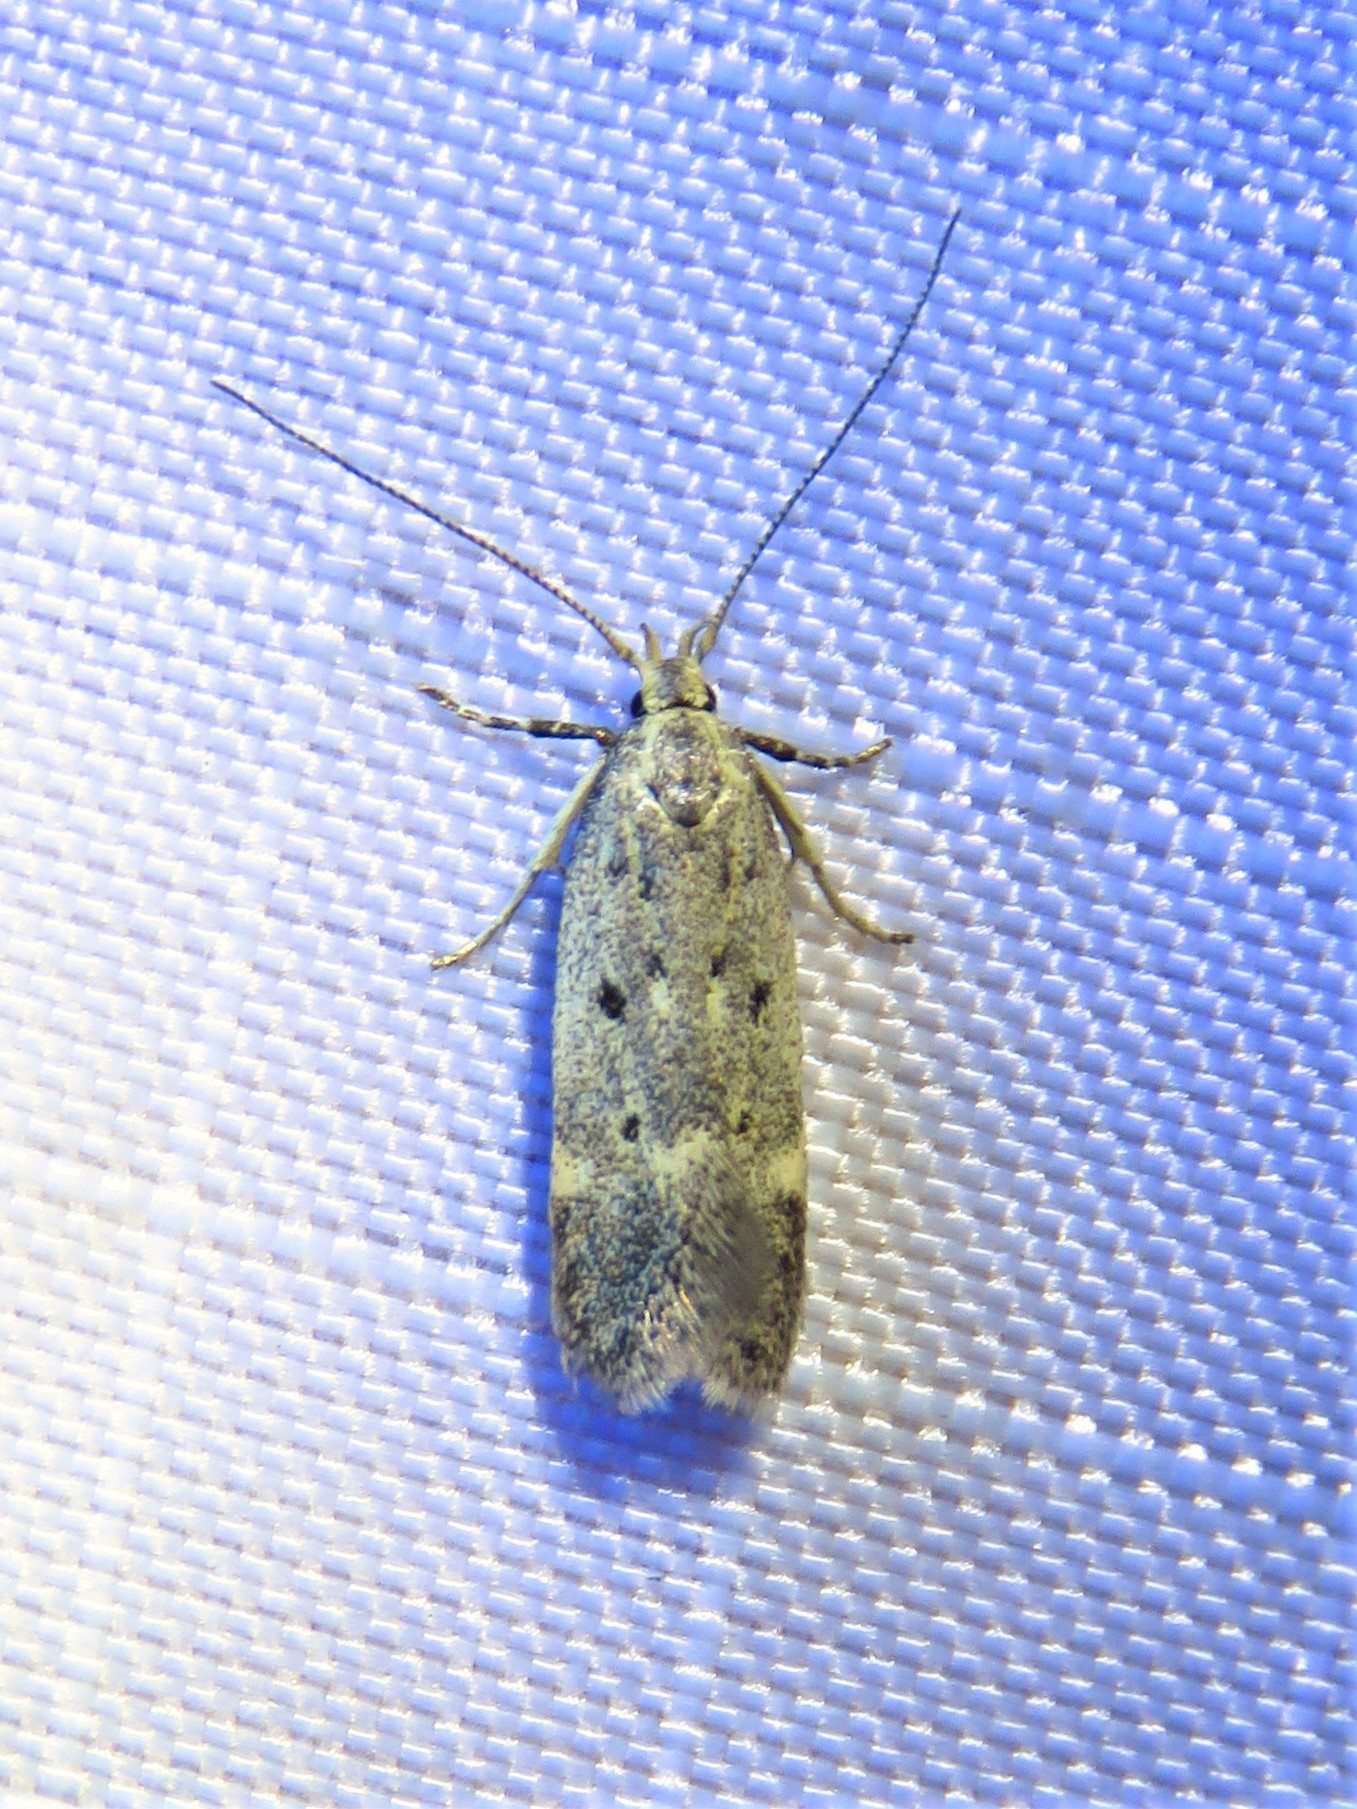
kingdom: Animalia
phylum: Arthropoda
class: Insecta
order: Lepidoptera
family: Gelechiidae
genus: Neodactylota
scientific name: Neodactylota liguritrix
